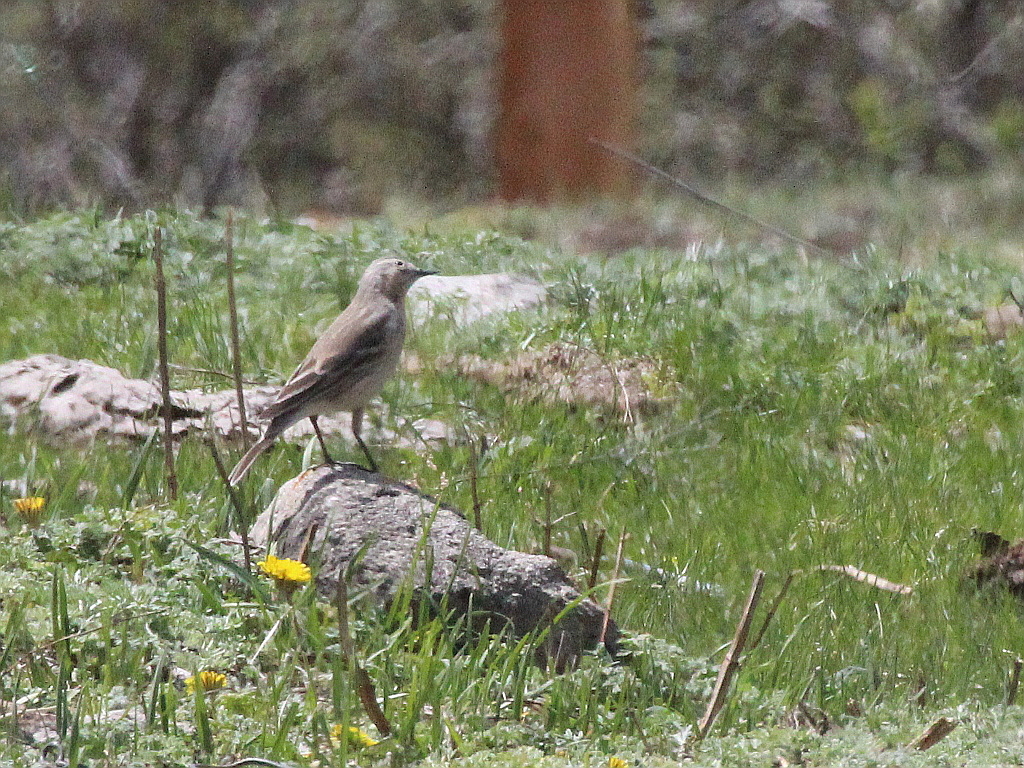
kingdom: Animalia
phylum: Chordata
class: Aves
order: Passeriformes
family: Motacillidae
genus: Anthus
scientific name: Anthus spinoletta
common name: Water pipit
